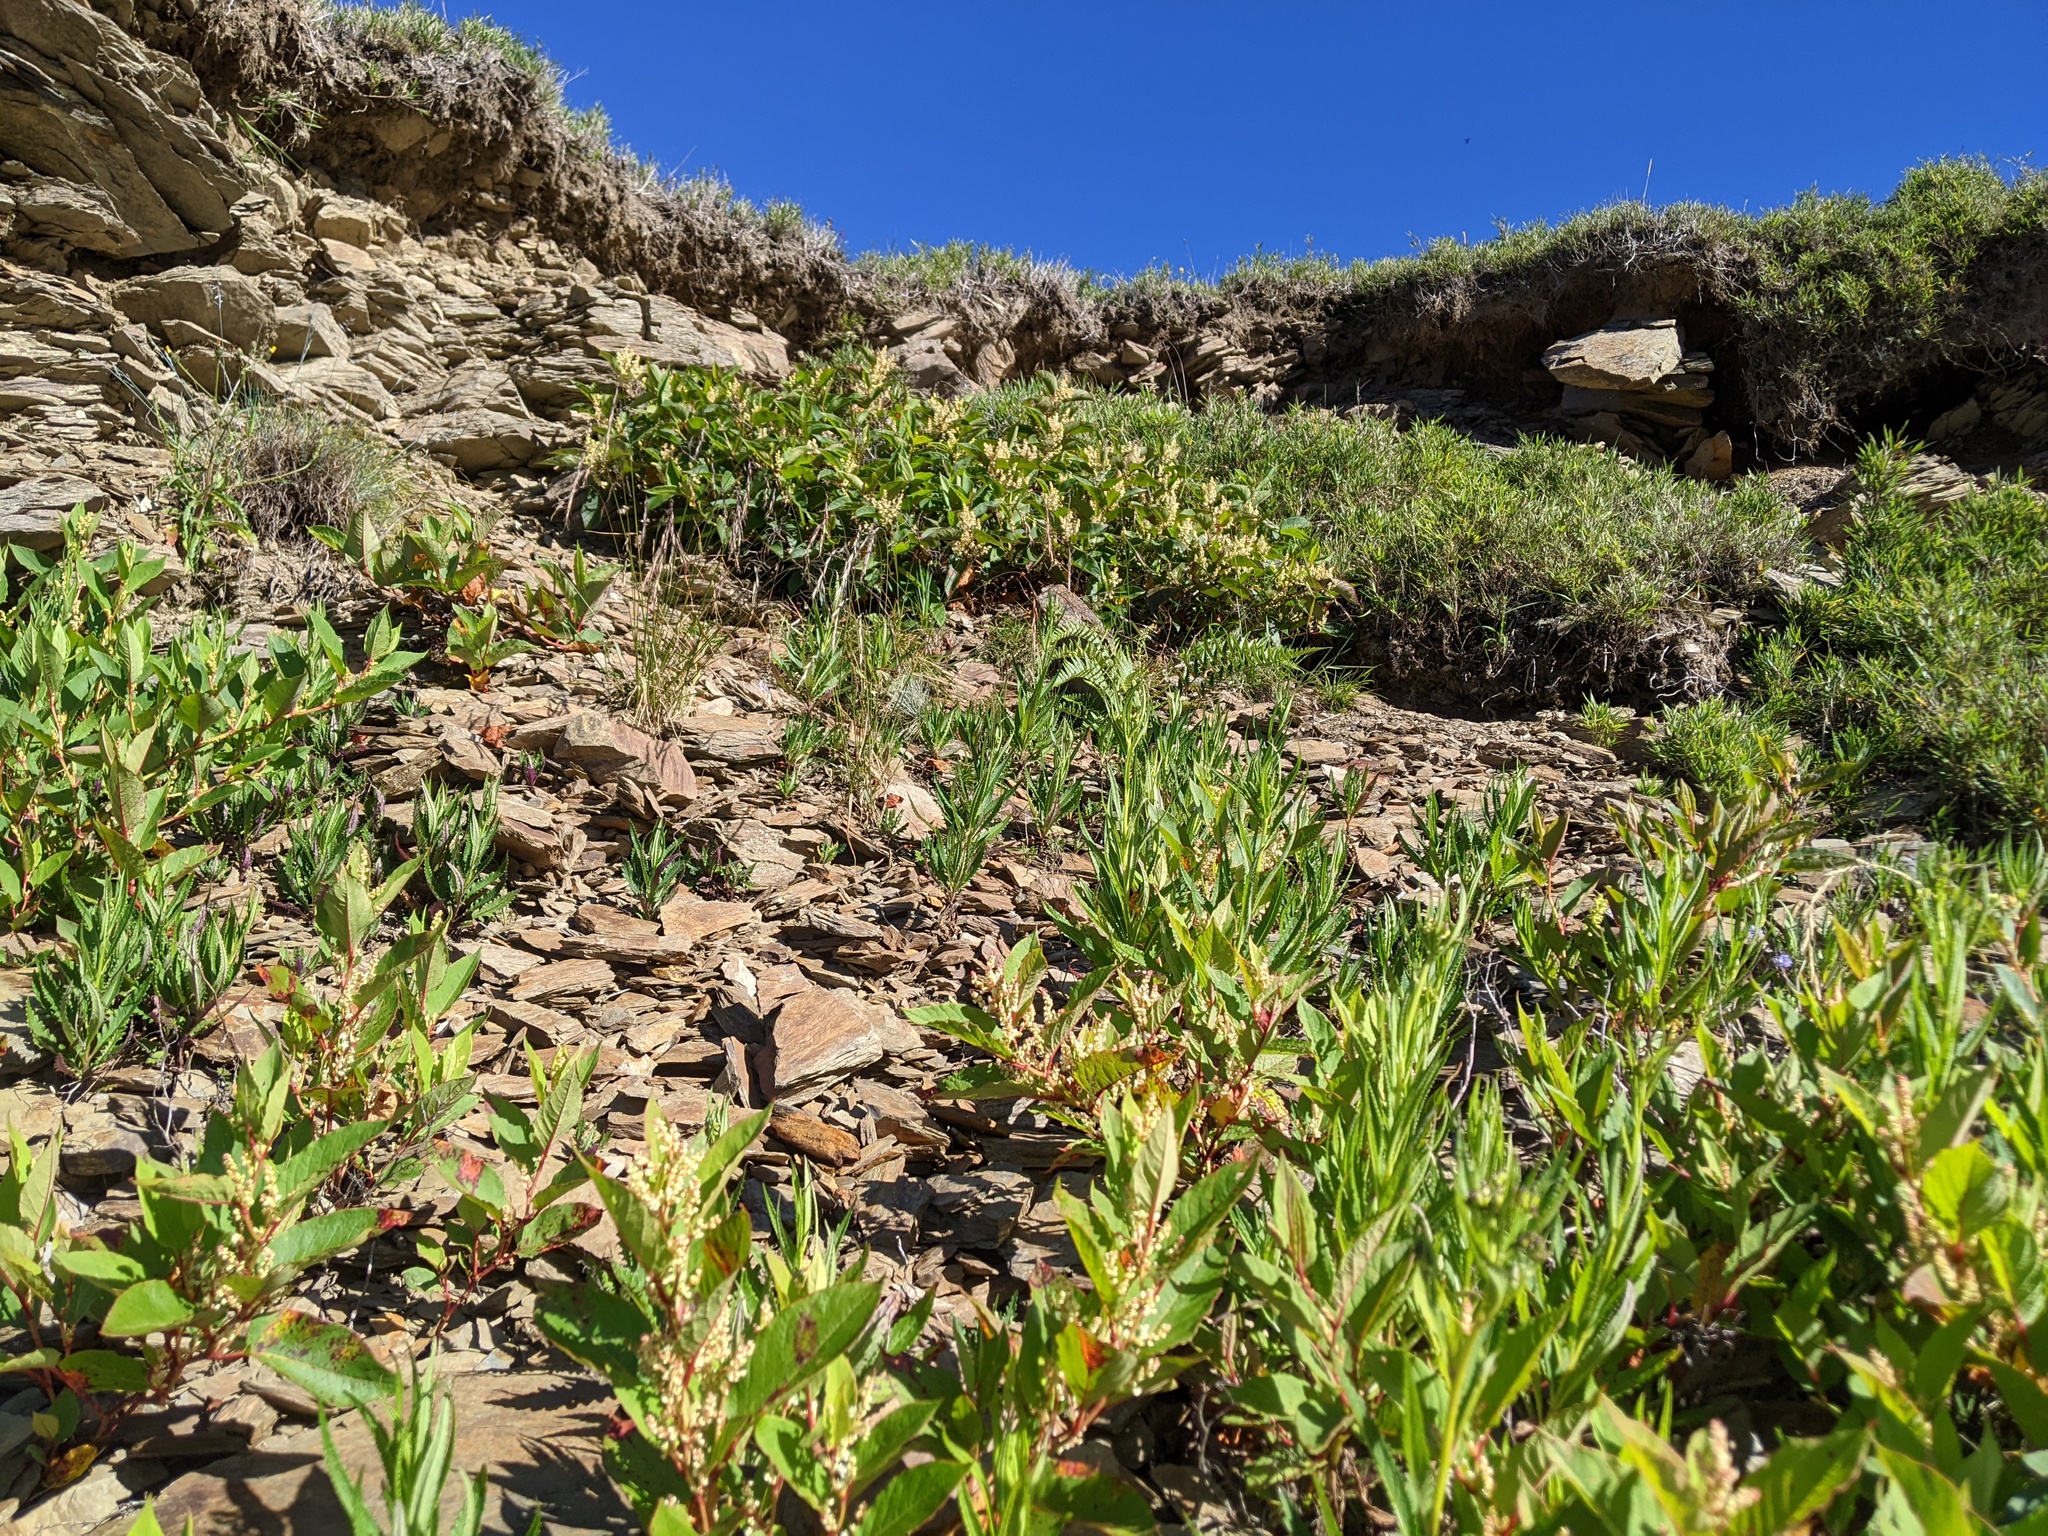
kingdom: Plantae
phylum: Tracheophyta
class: Magnoliopsida
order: Caryophyllales
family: Polygonaceae
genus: Reynoutria
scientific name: Reynoutria japonica
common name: Japanese knotweed
